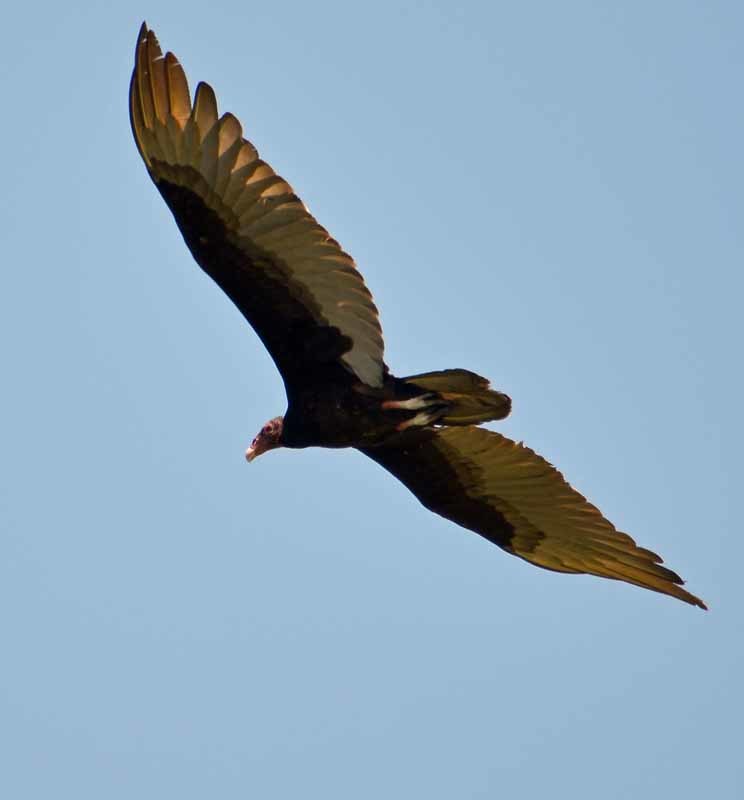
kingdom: Animalia
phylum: Chordata
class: Aves
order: Accipitriformes
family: Cathartidae
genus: Cathartes
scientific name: Cathartes burrovianus
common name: Lesser yellow-headed vulture
